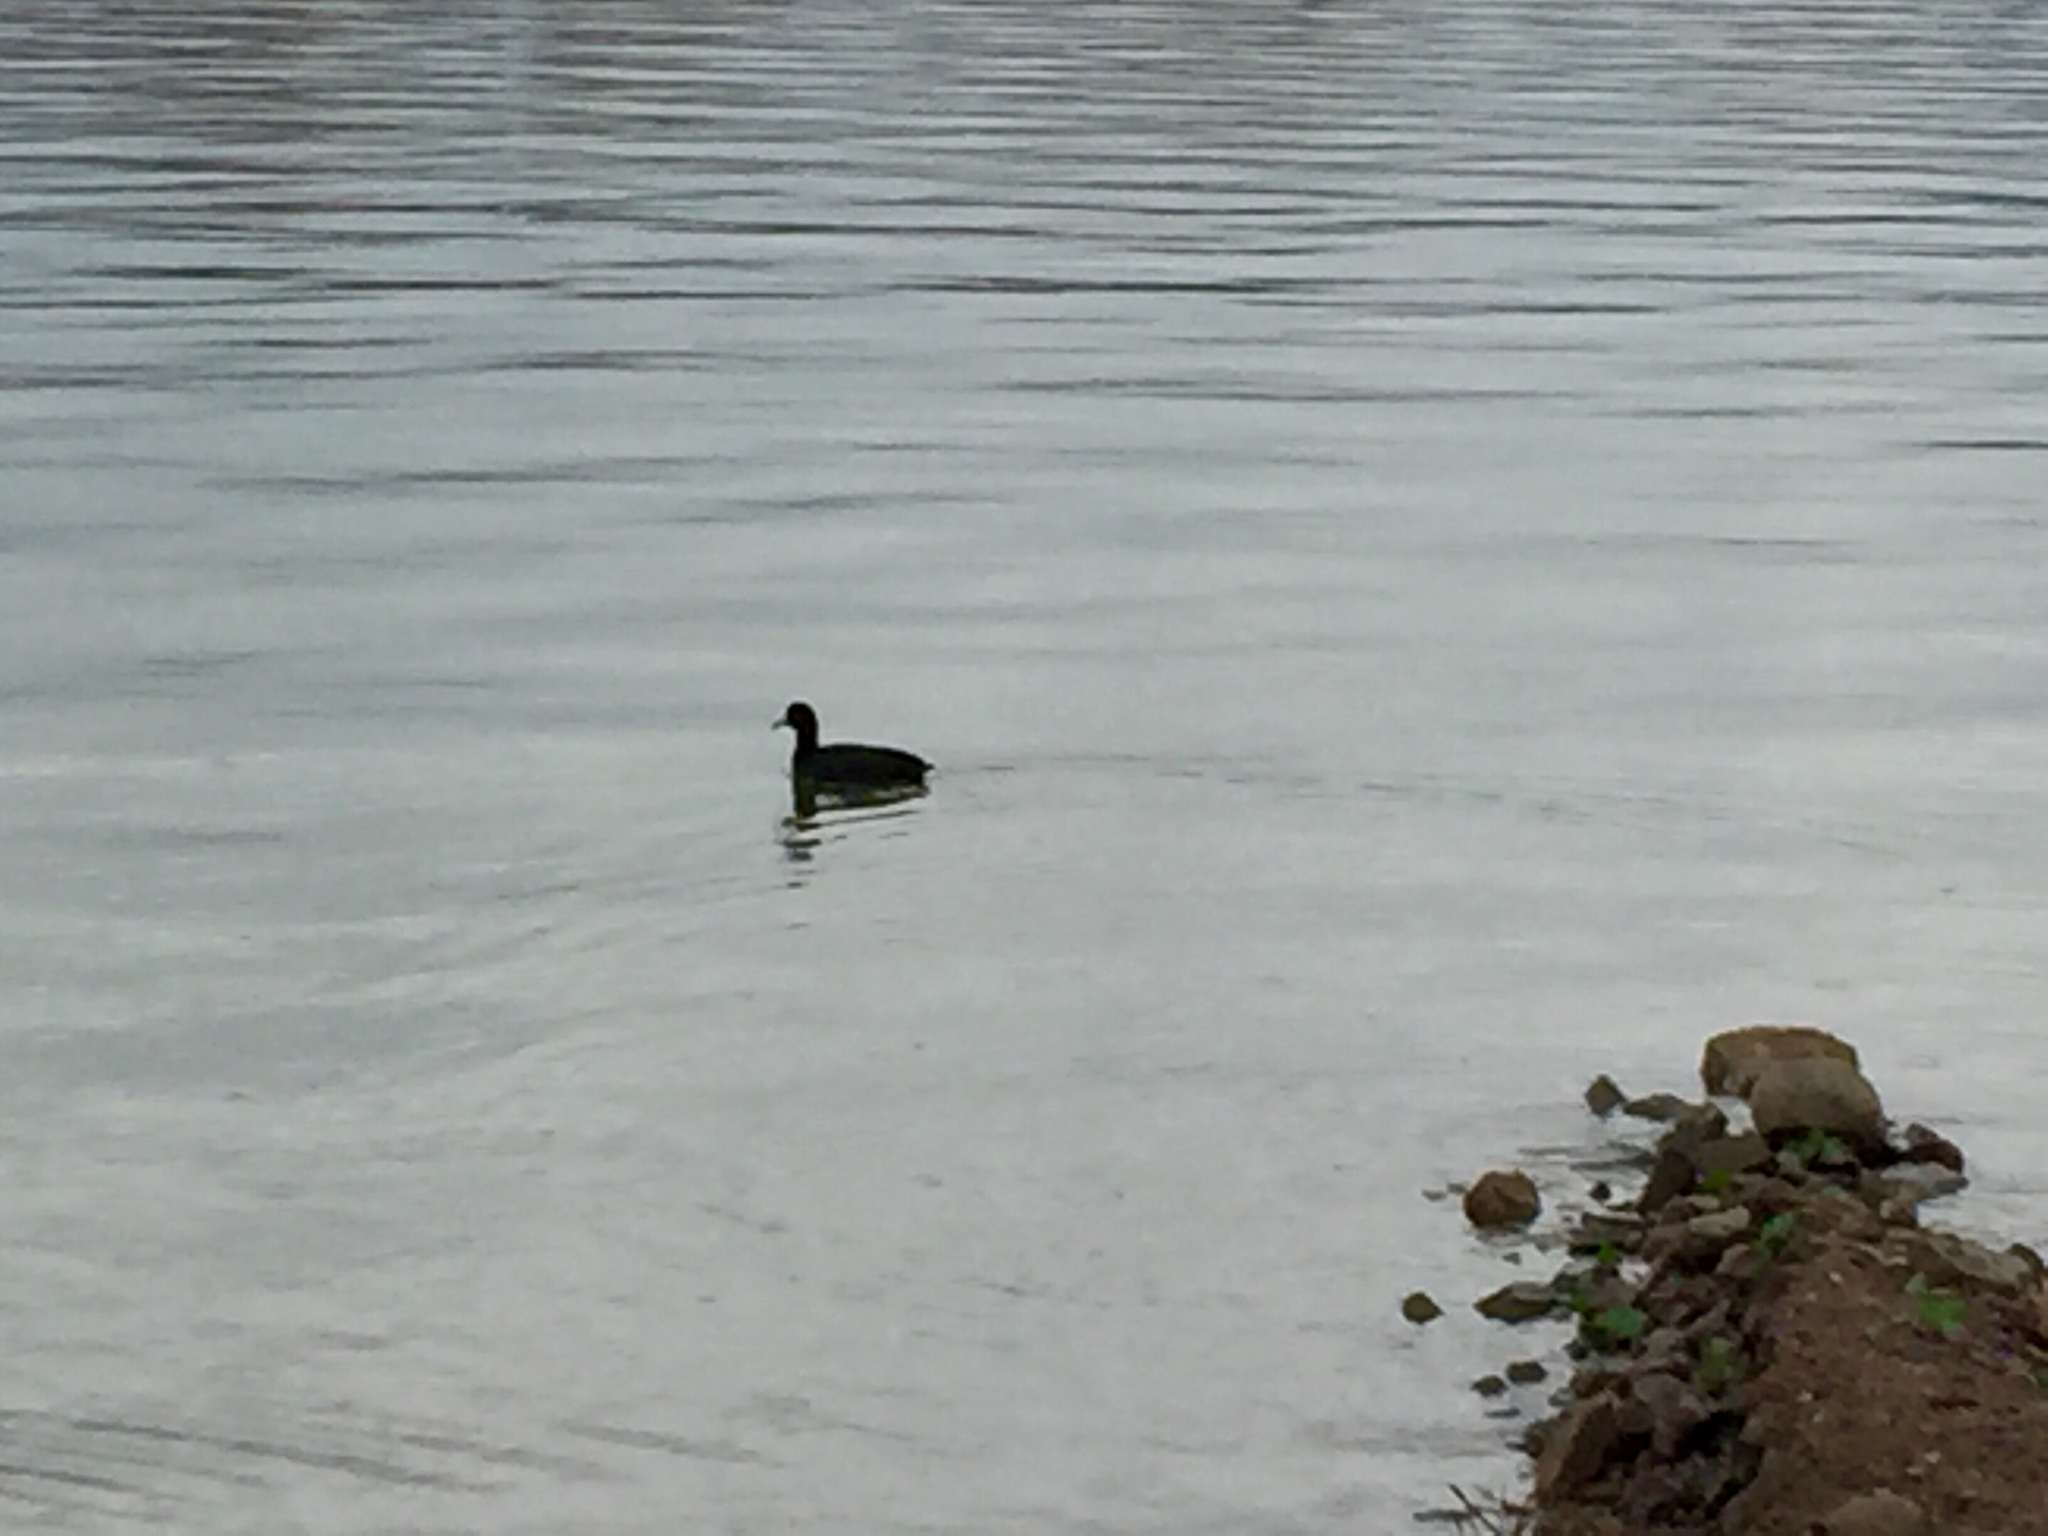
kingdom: Animalia
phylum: Chordata
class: Aves
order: Gruiformes
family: Rallidae
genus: Fulica
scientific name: Fulica americana
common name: American coot
